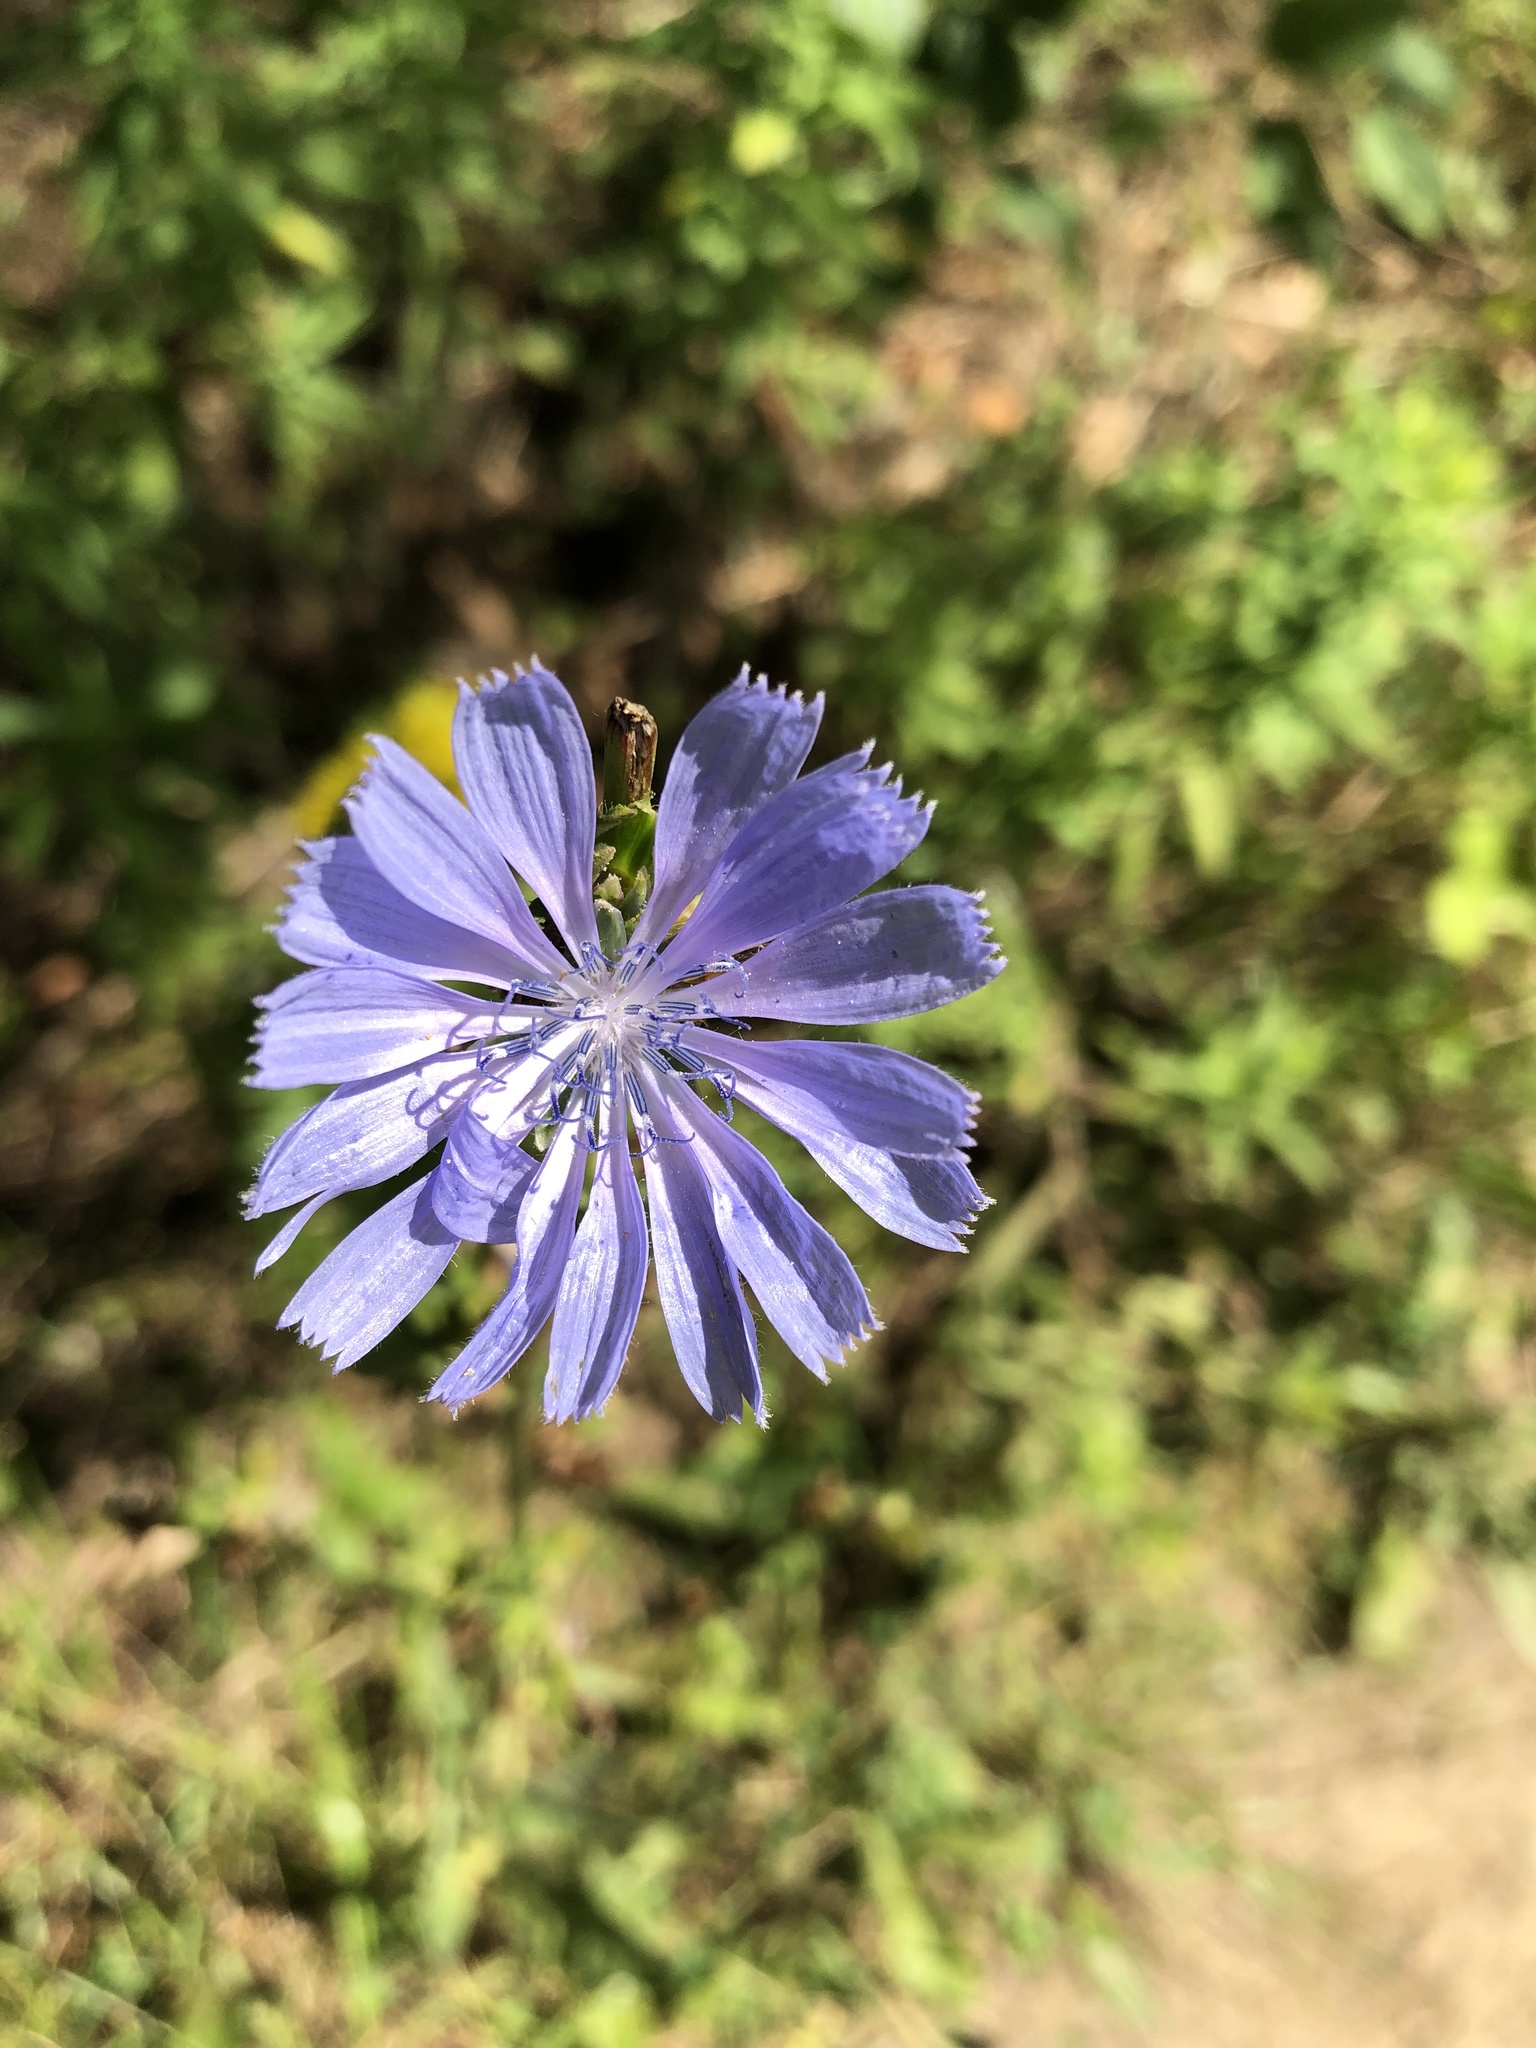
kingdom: Plantae
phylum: Tracheophyta
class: Magnoliopsida
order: Asterales
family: Asteraceae
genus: Cichorium
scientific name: Cichorium intybus
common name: Chicory
